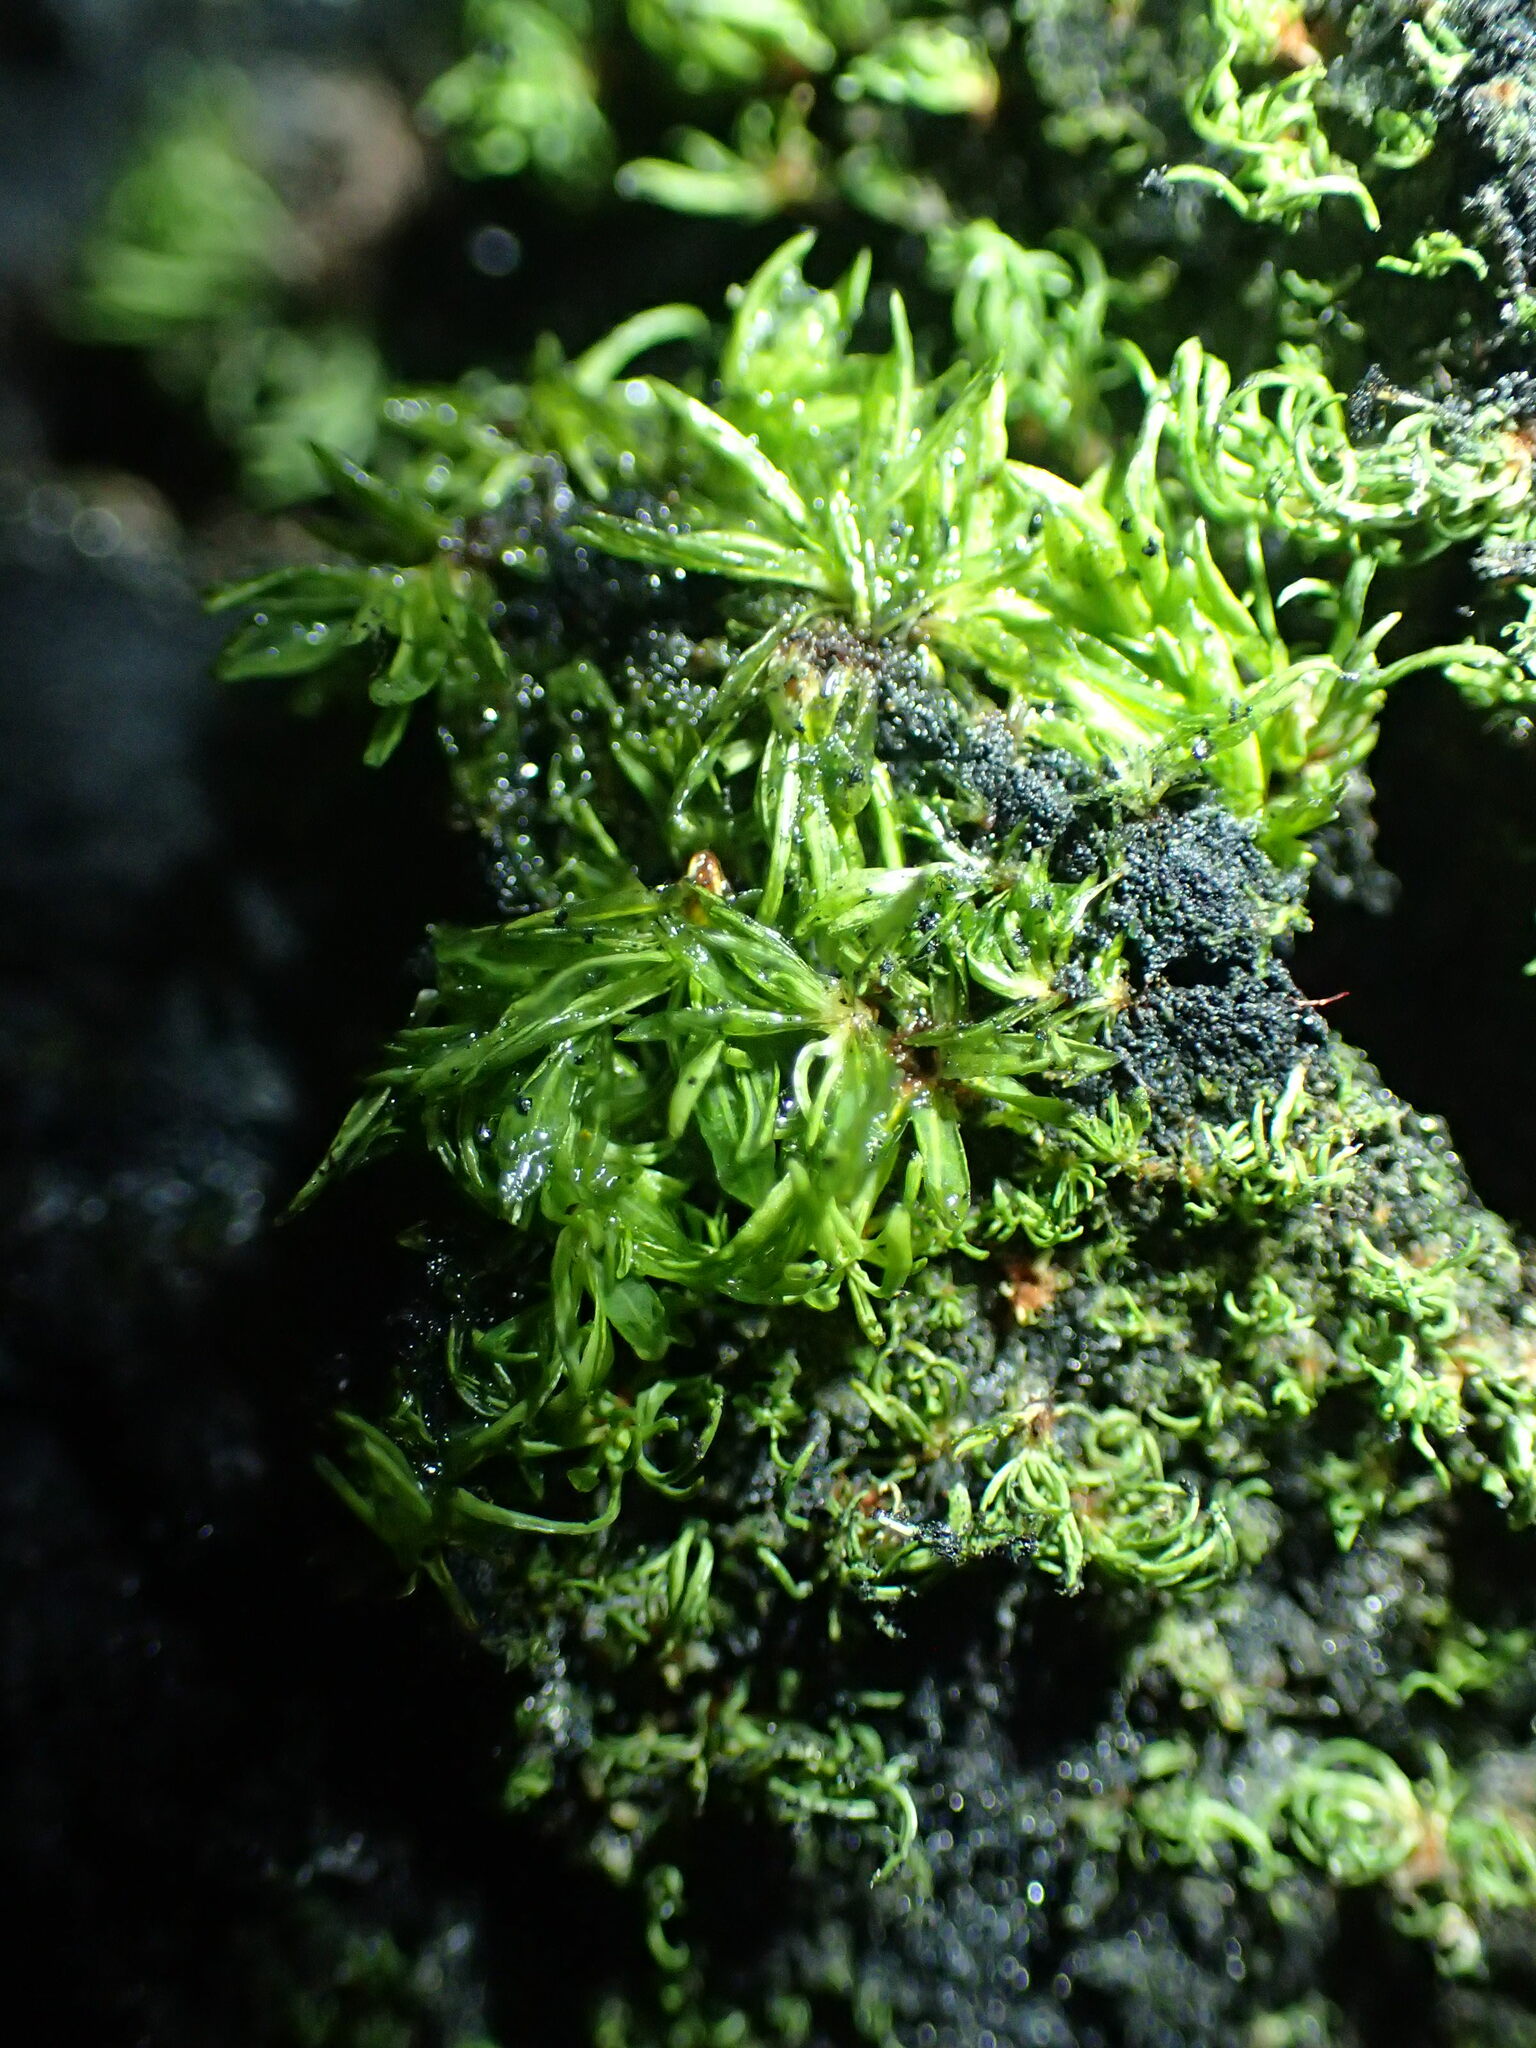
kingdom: Plantae
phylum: Bryophyta
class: Bryopsida
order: Hypnales
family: Fabroniaceae
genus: Fabronia
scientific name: Fabronia hampeana
